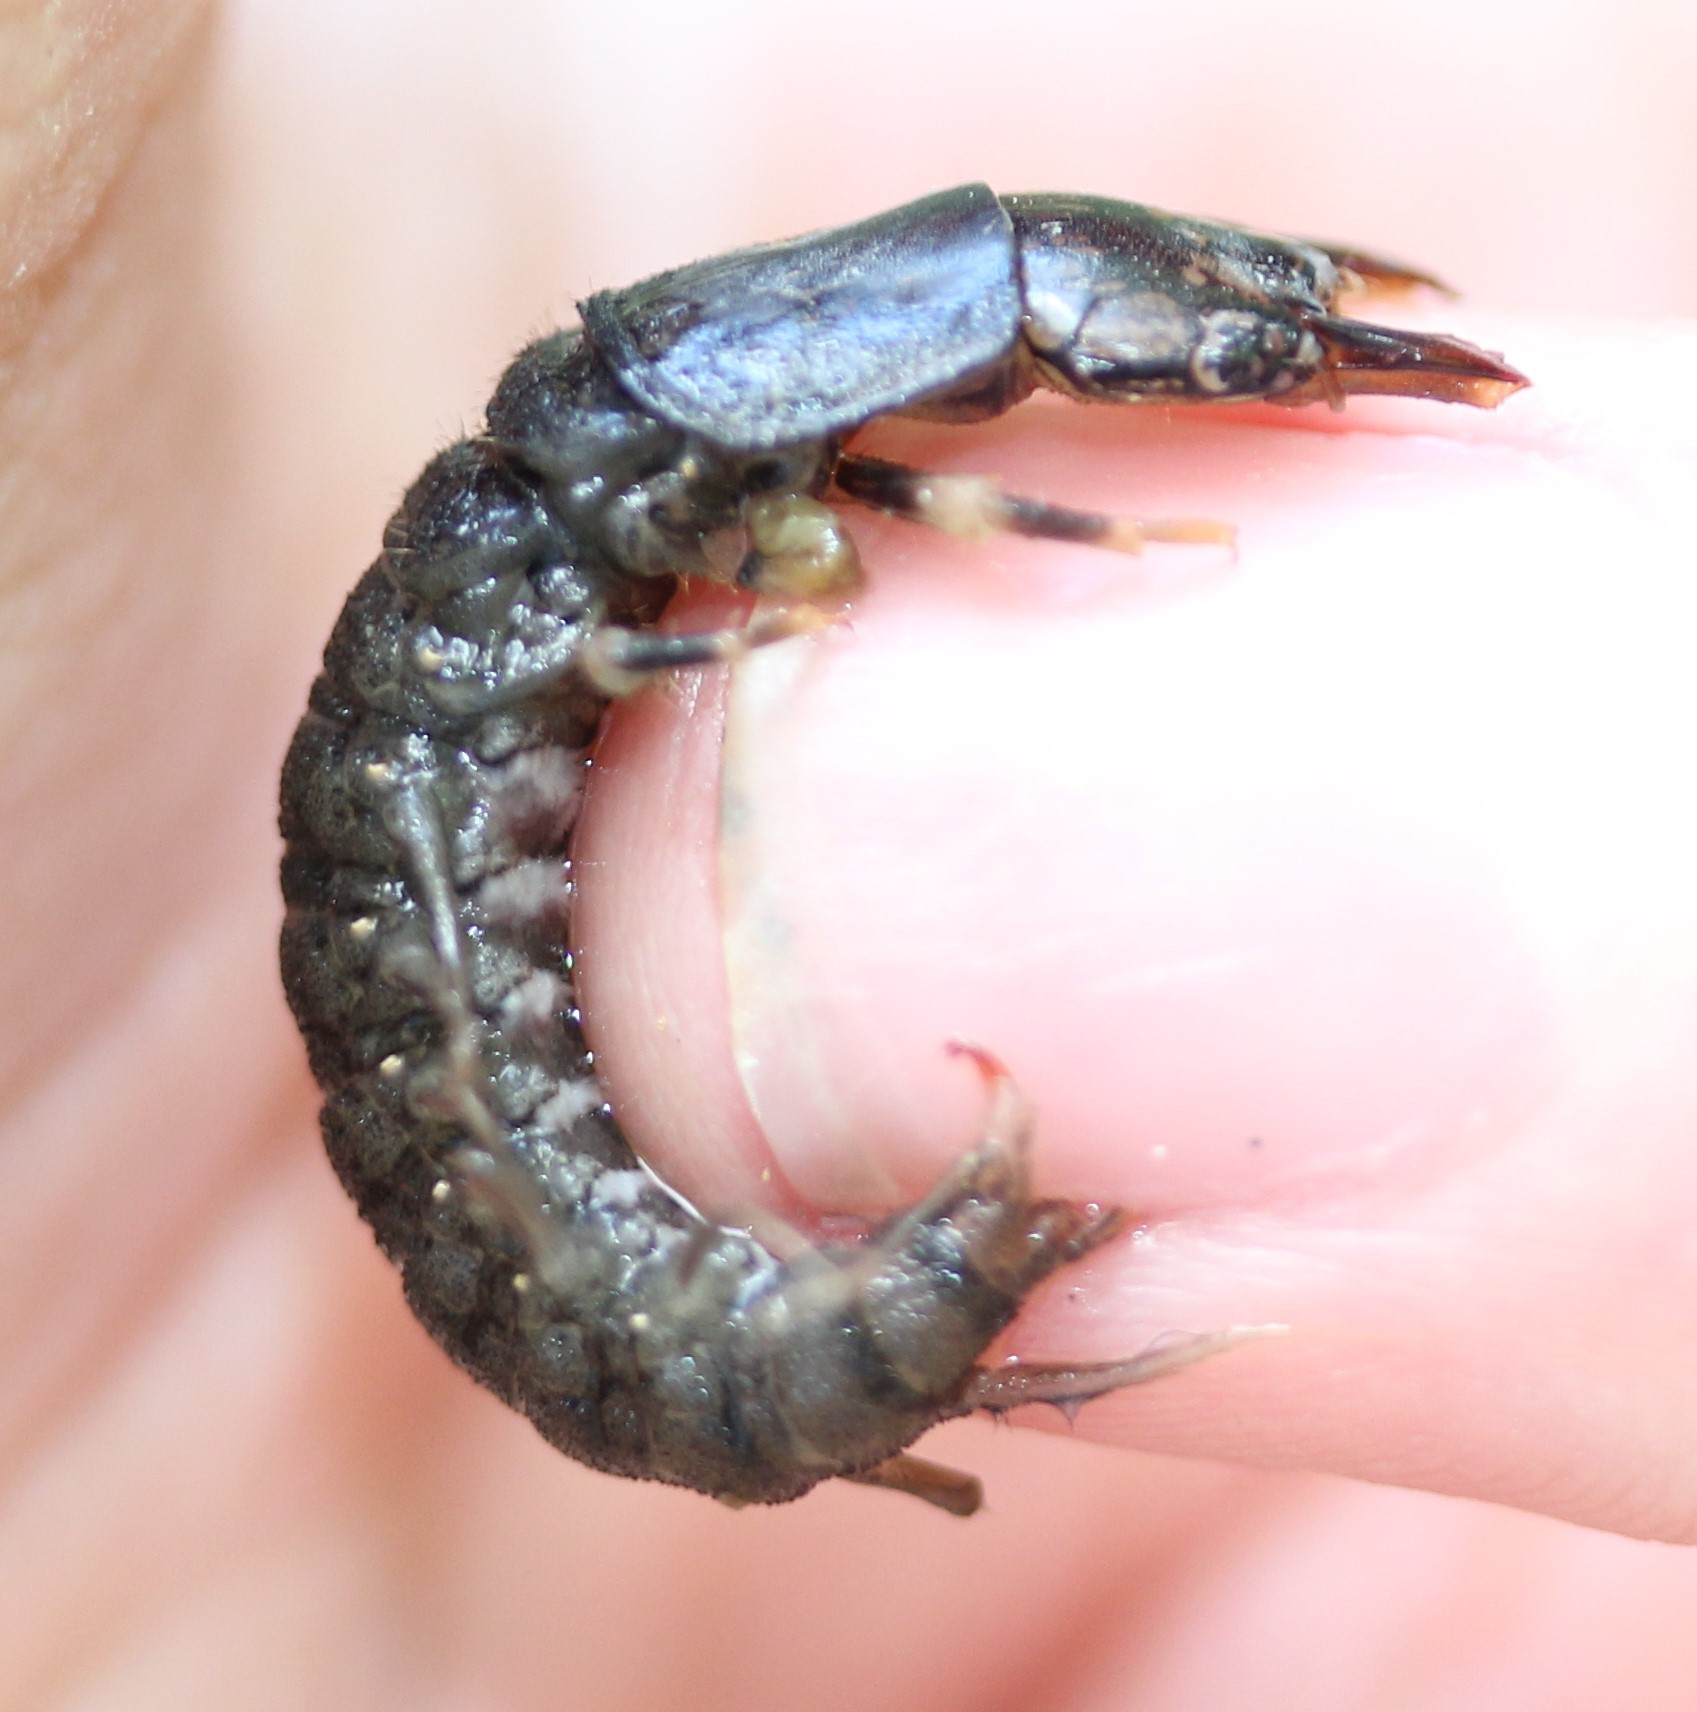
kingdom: Animalia
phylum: Arthropoda
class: Insecta
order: Megaloptera
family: Corydalidae
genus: Corydalus
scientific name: Corydalus cornutus
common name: Dobsonfly
